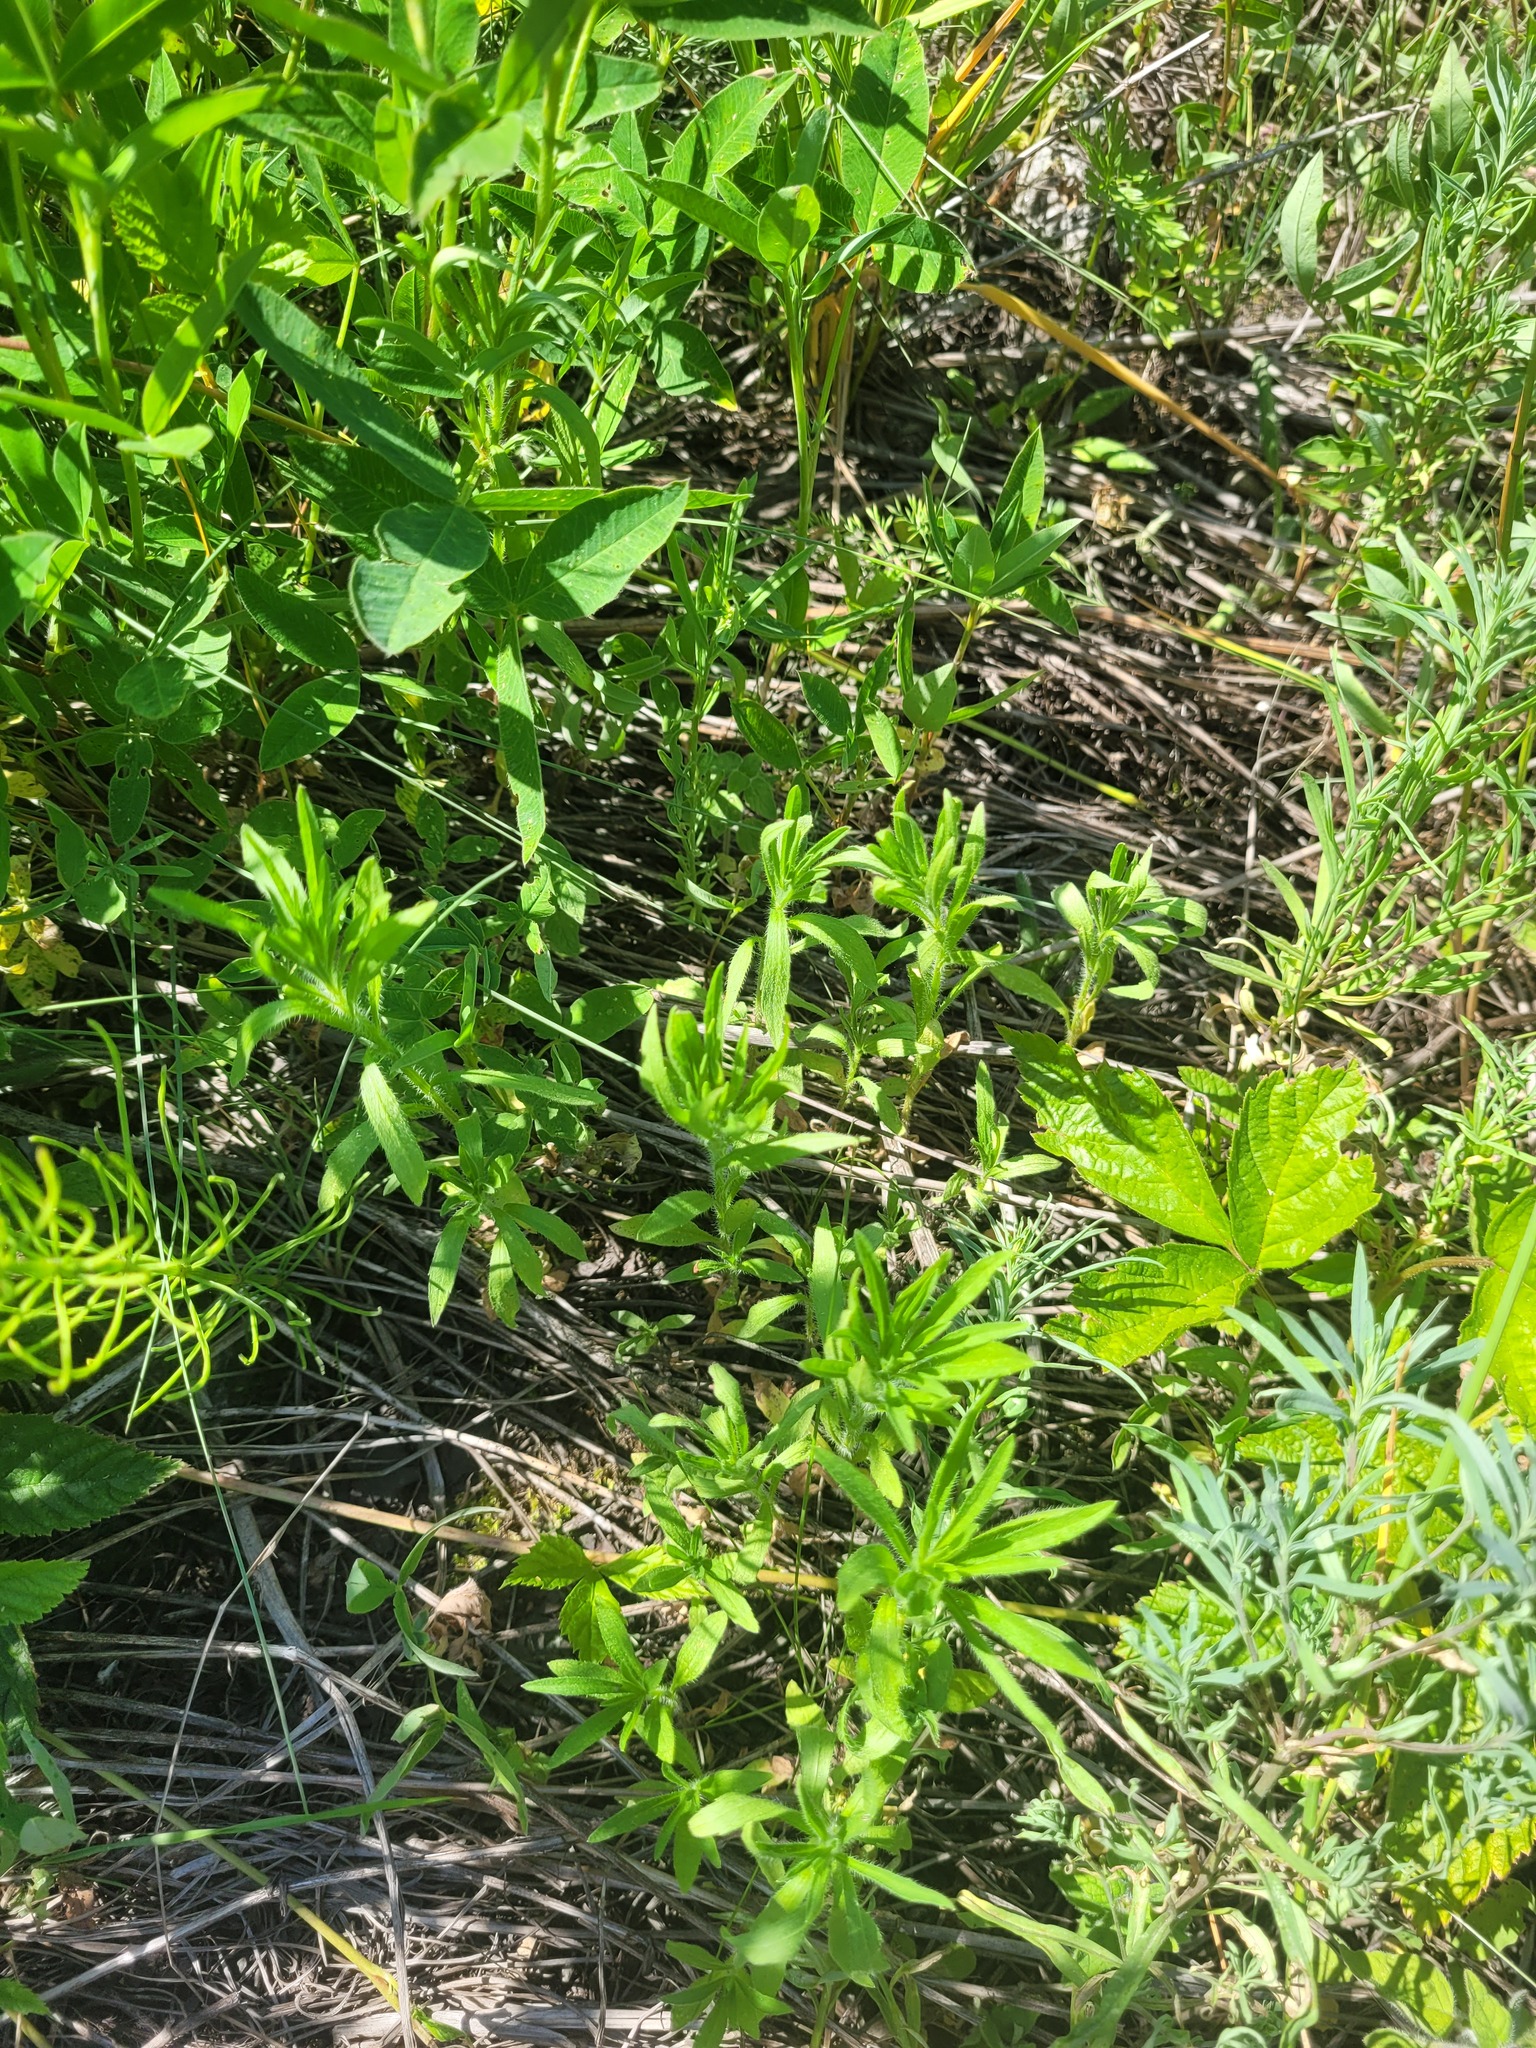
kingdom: Plantae
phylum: Tracheophyta
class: Magnoliopsida
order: Asterales
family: Asteraceae
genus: Erigeron
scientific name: Erigeron canadensis
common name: Canadian fleabane
